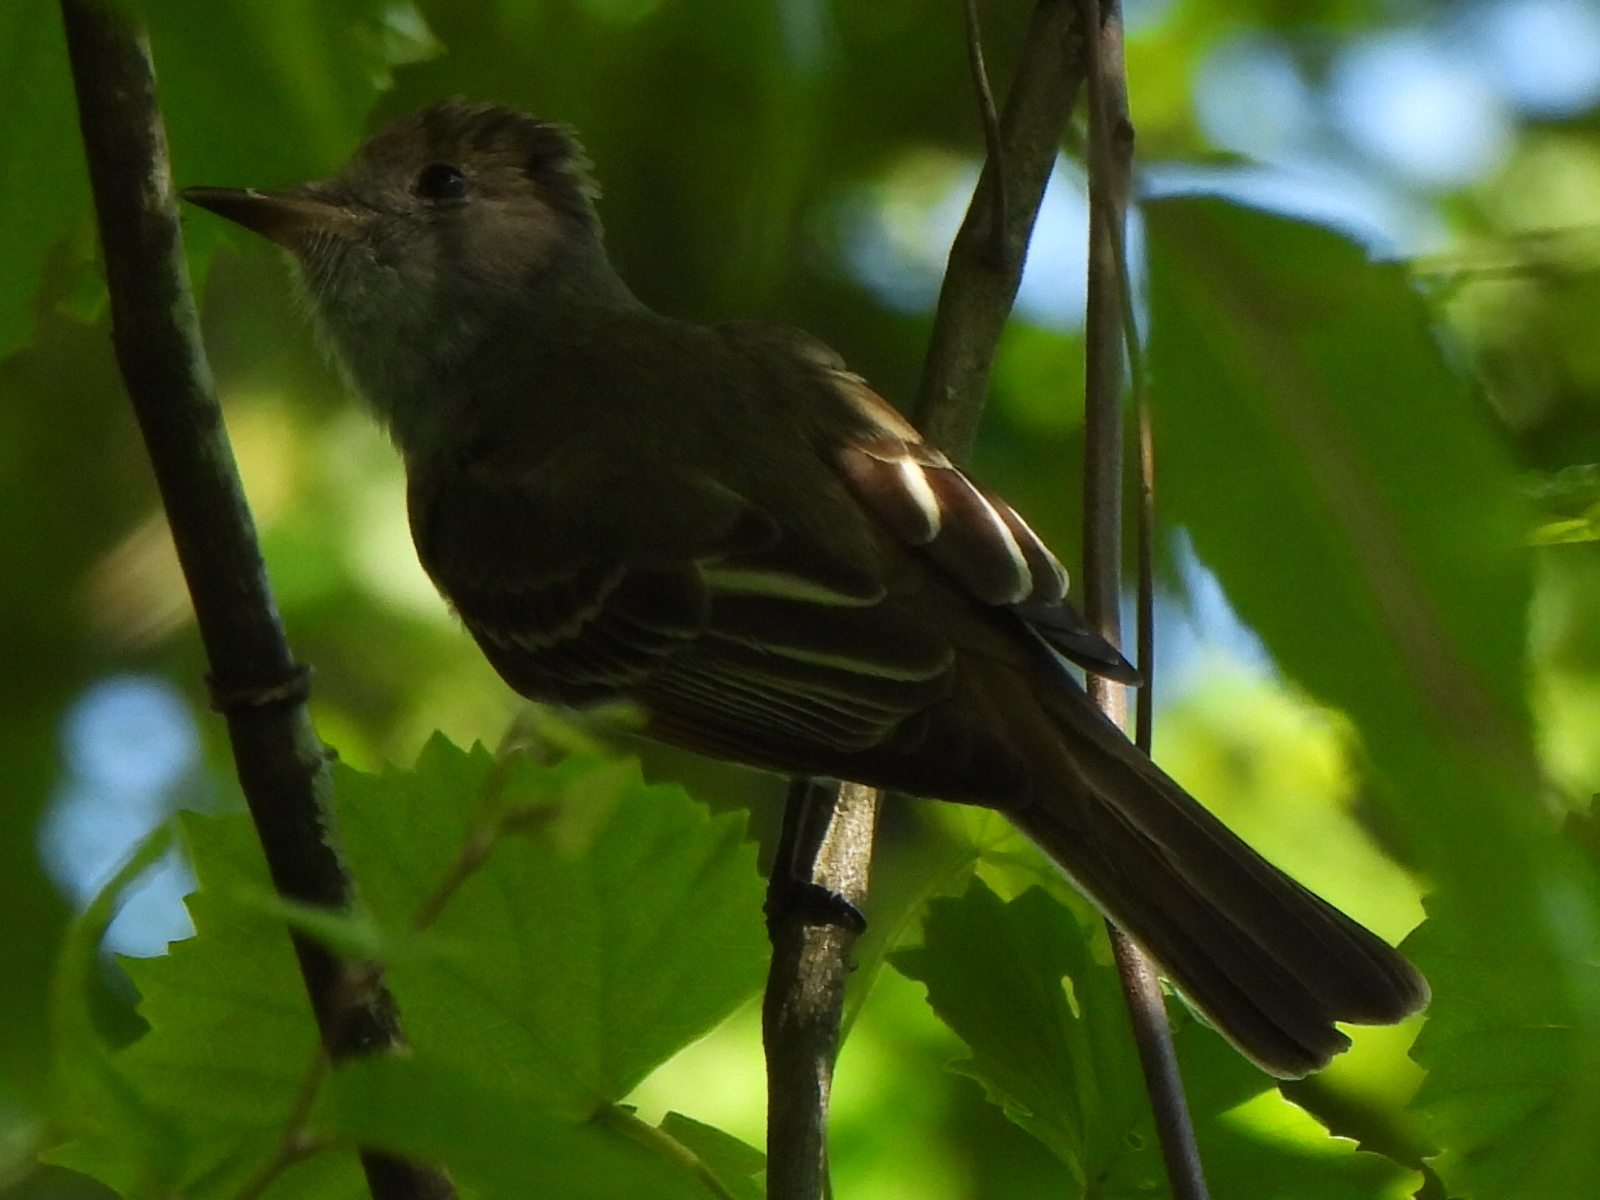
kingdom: Animalia
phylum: Chordata
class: Aves
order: Passeriformes
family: Tyrannidae
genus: Myiarchus
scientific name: Myiarchus crinitus
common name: Great crested flycatcher
